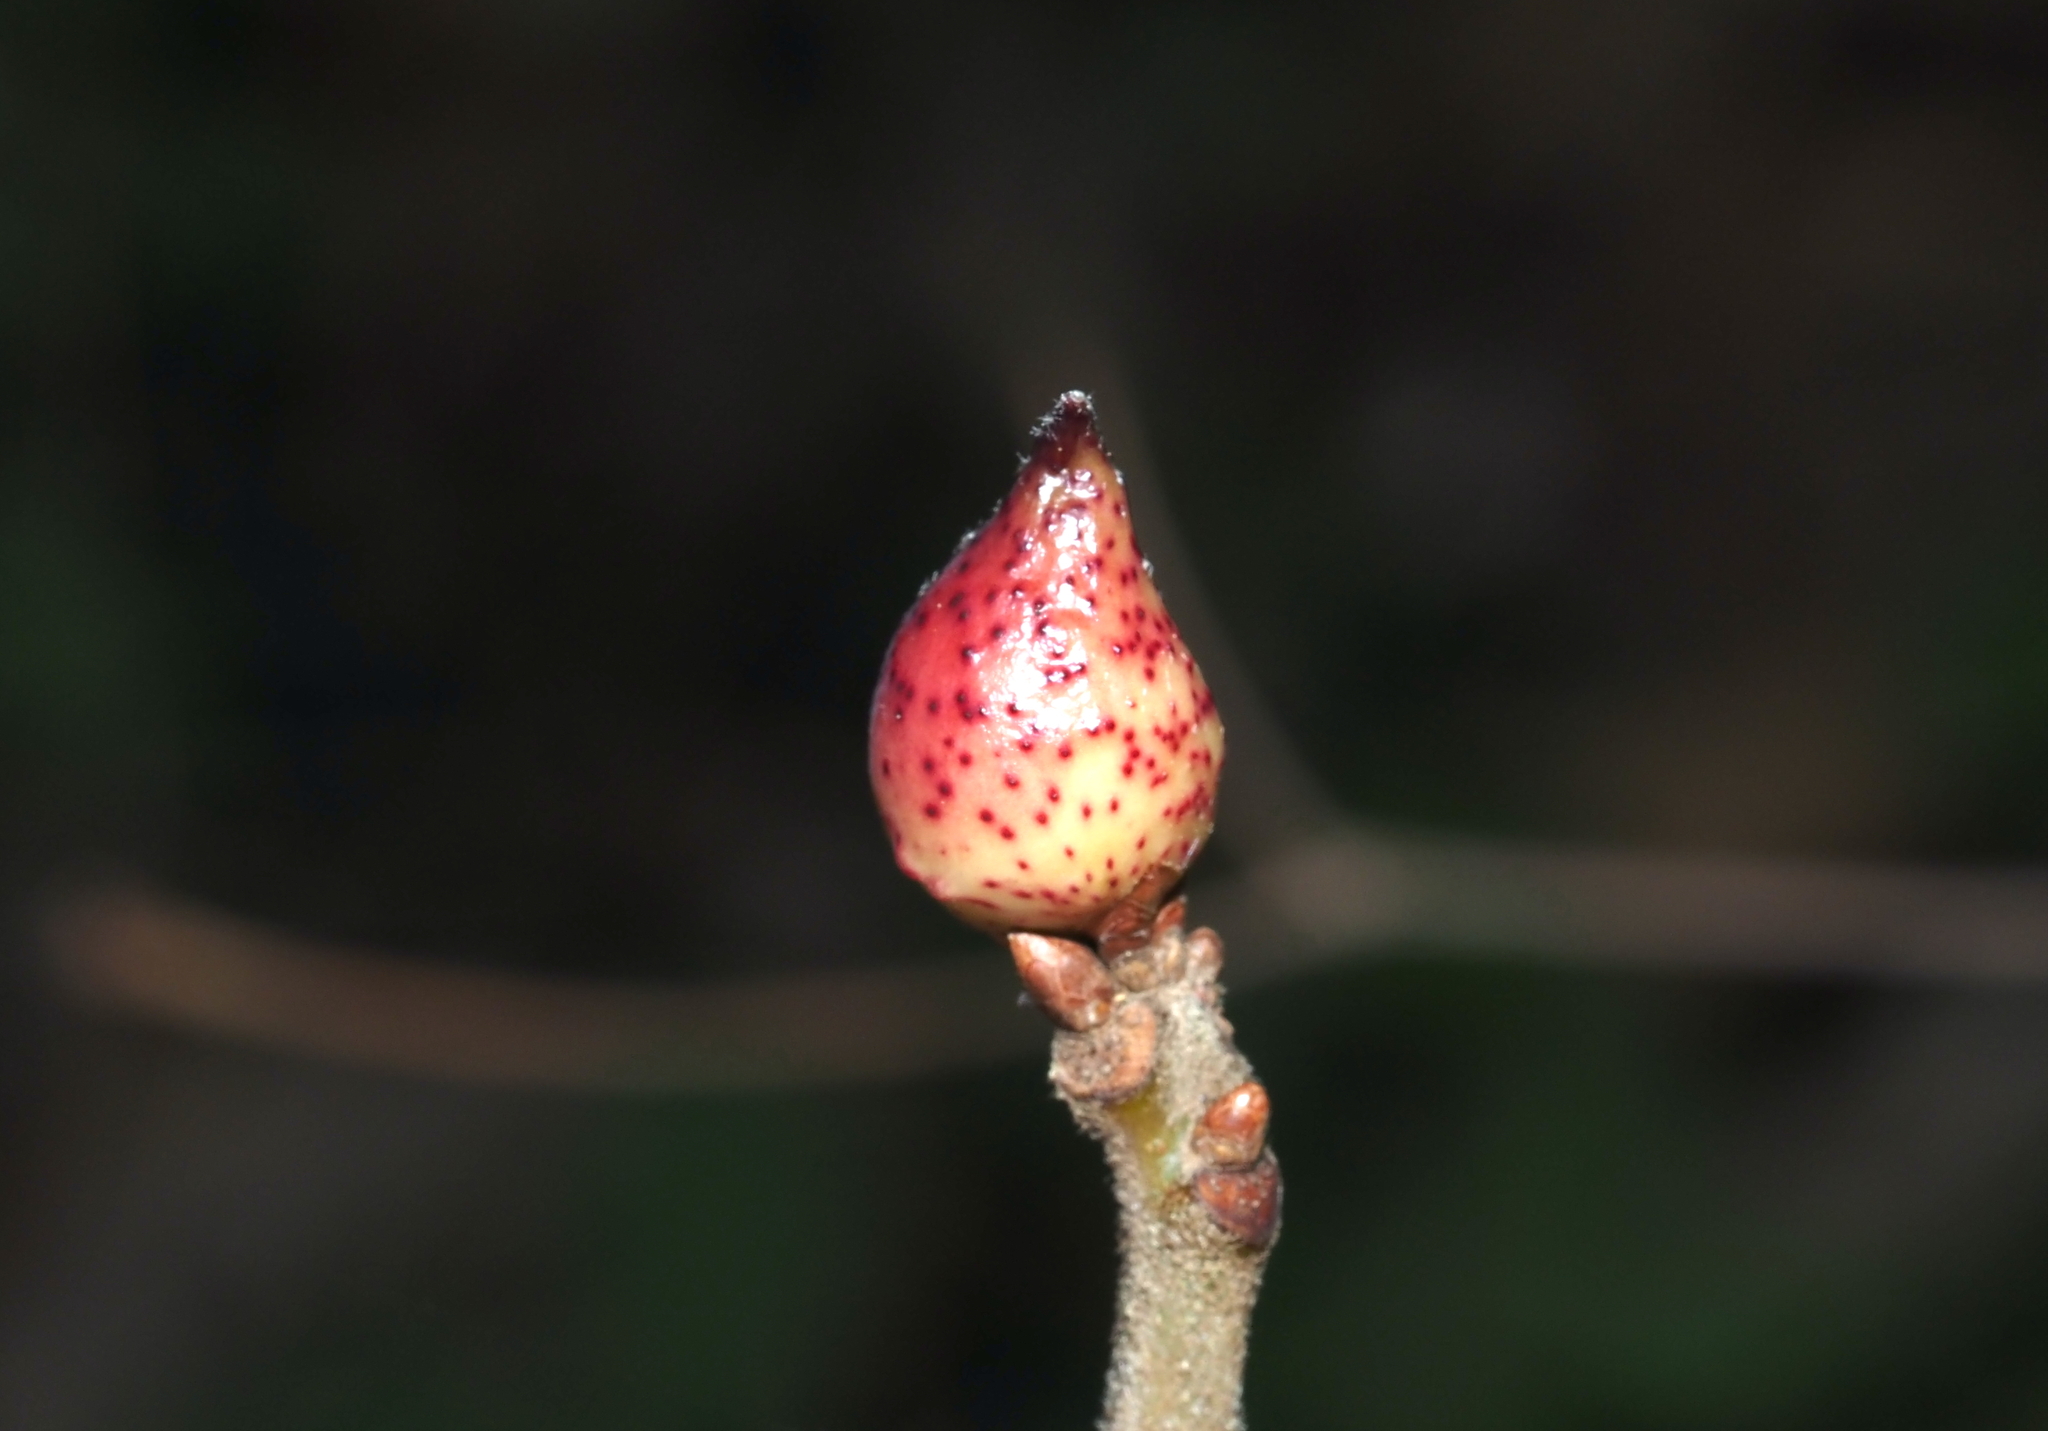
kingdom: Animalia
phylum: Arthropoda
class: Insecta
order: Hymenoptera
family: Cynipidae
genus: Amphibolips
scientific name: Amphibolips
